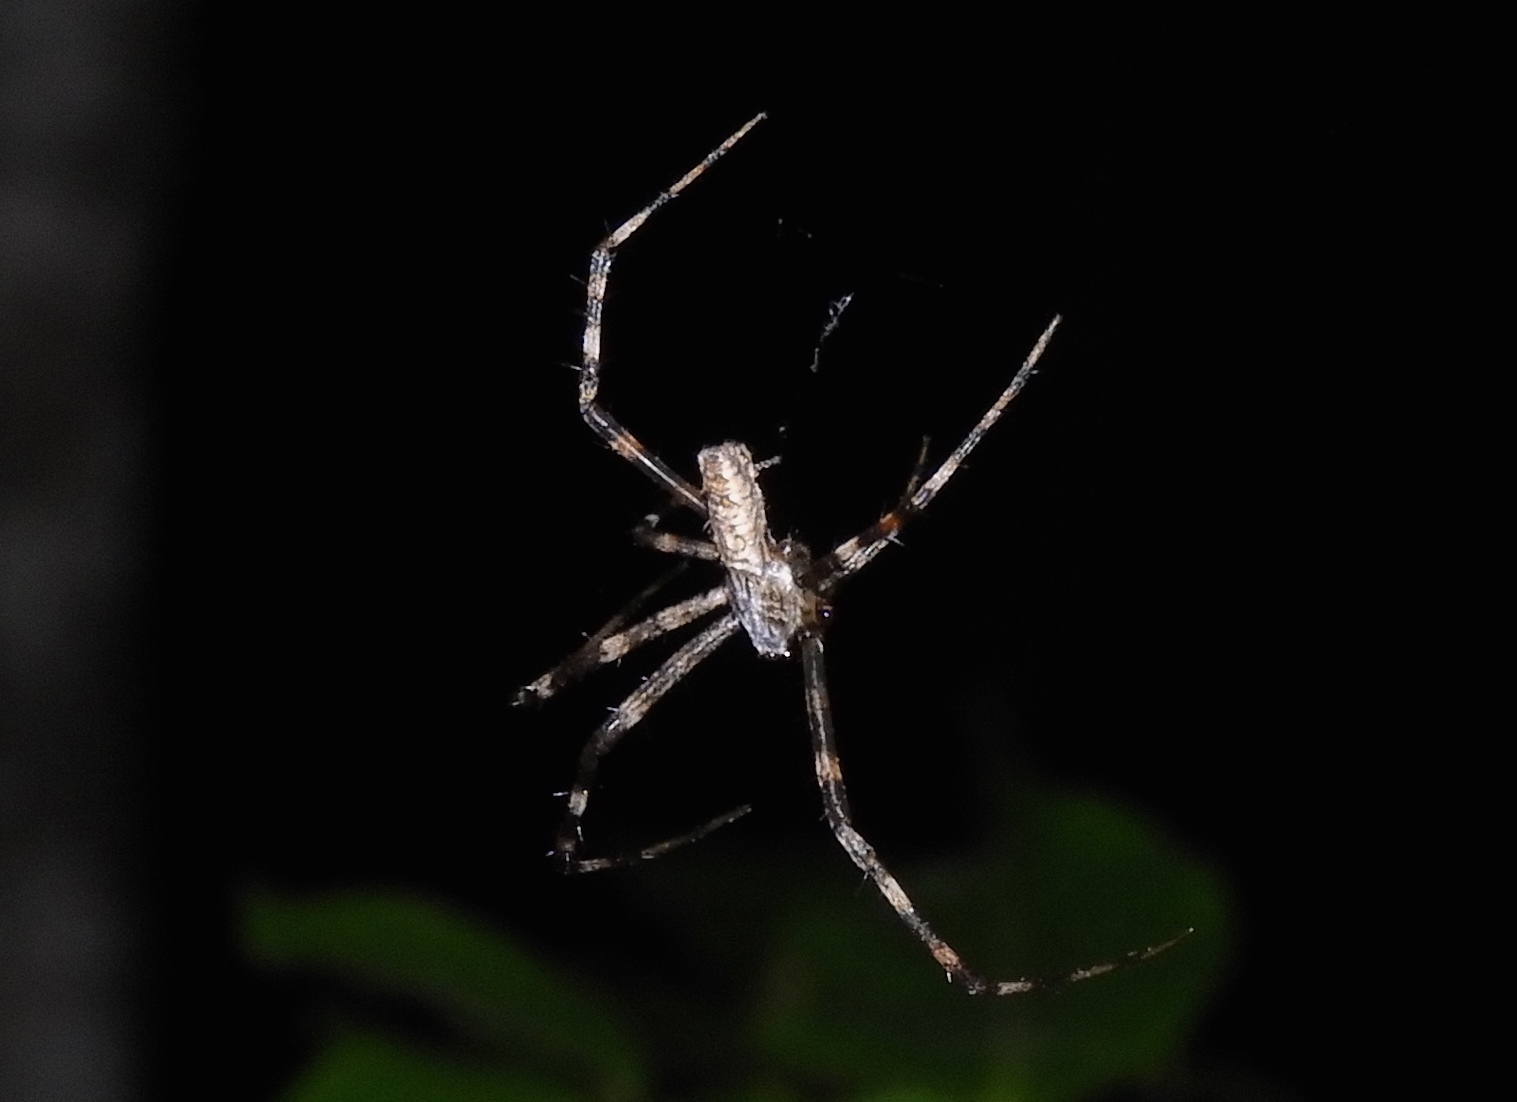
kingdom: Animalia
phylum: Arthropoda
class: Arachnida
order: Araneae
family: Araneidae
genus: Trichonephila
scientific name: Trichonephila clavipes
